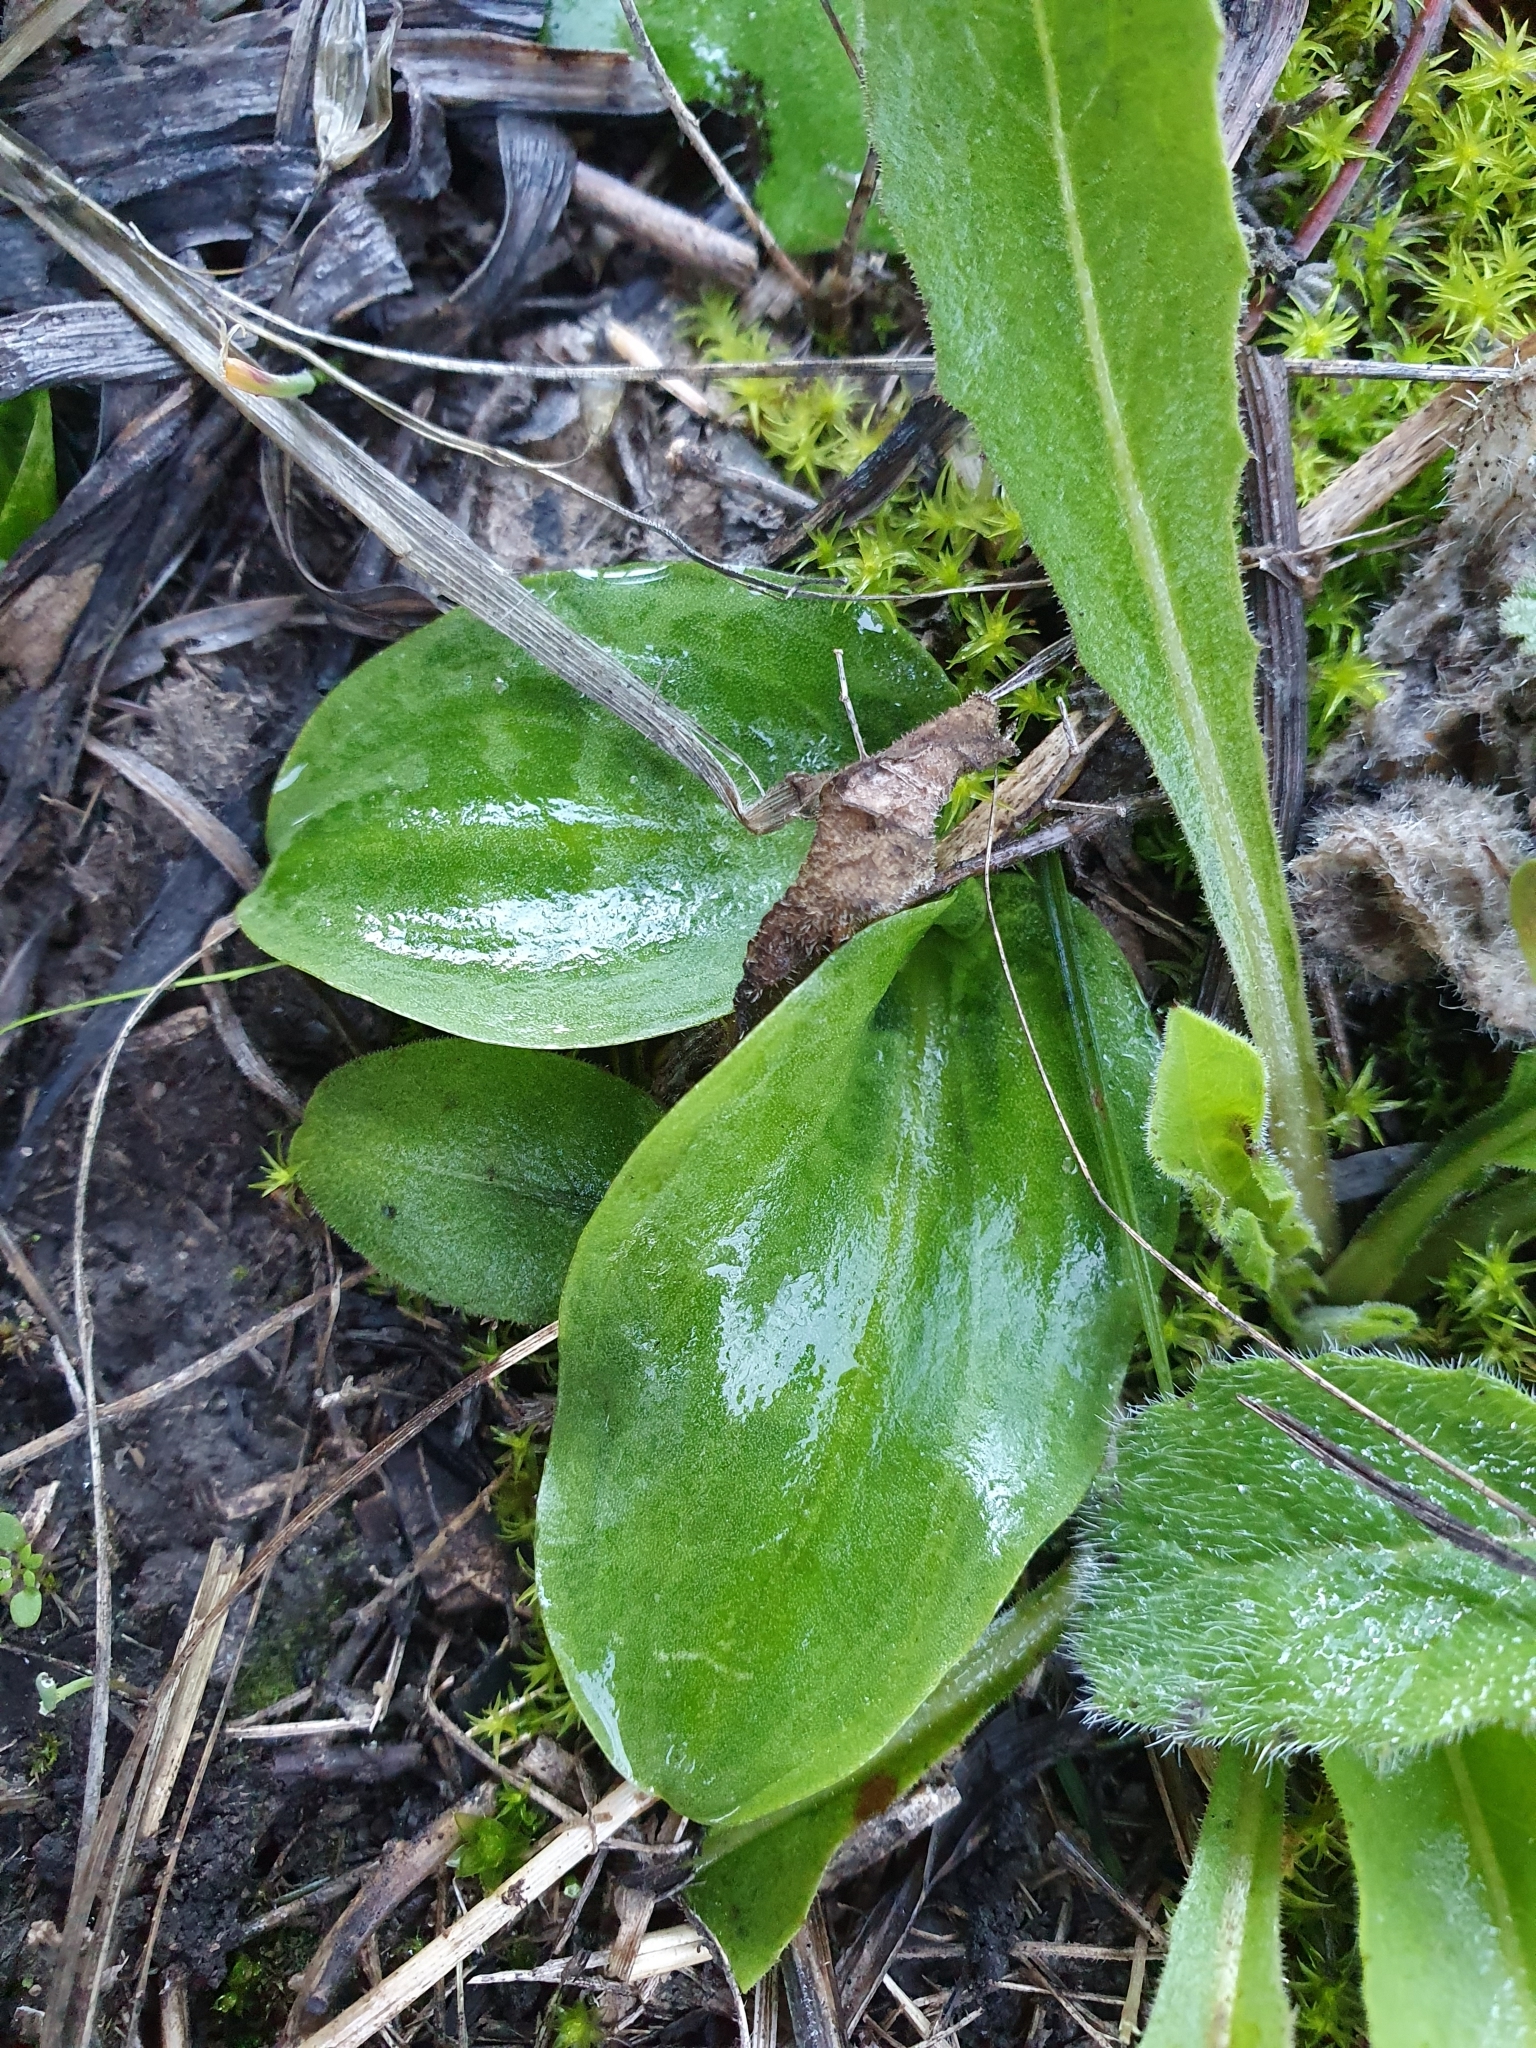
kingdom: Plantae
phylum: Tracheophyta
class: Liliopsida
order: Alismatales
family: Araceae
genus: Ambrosina
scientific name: Ambrosina bassii
